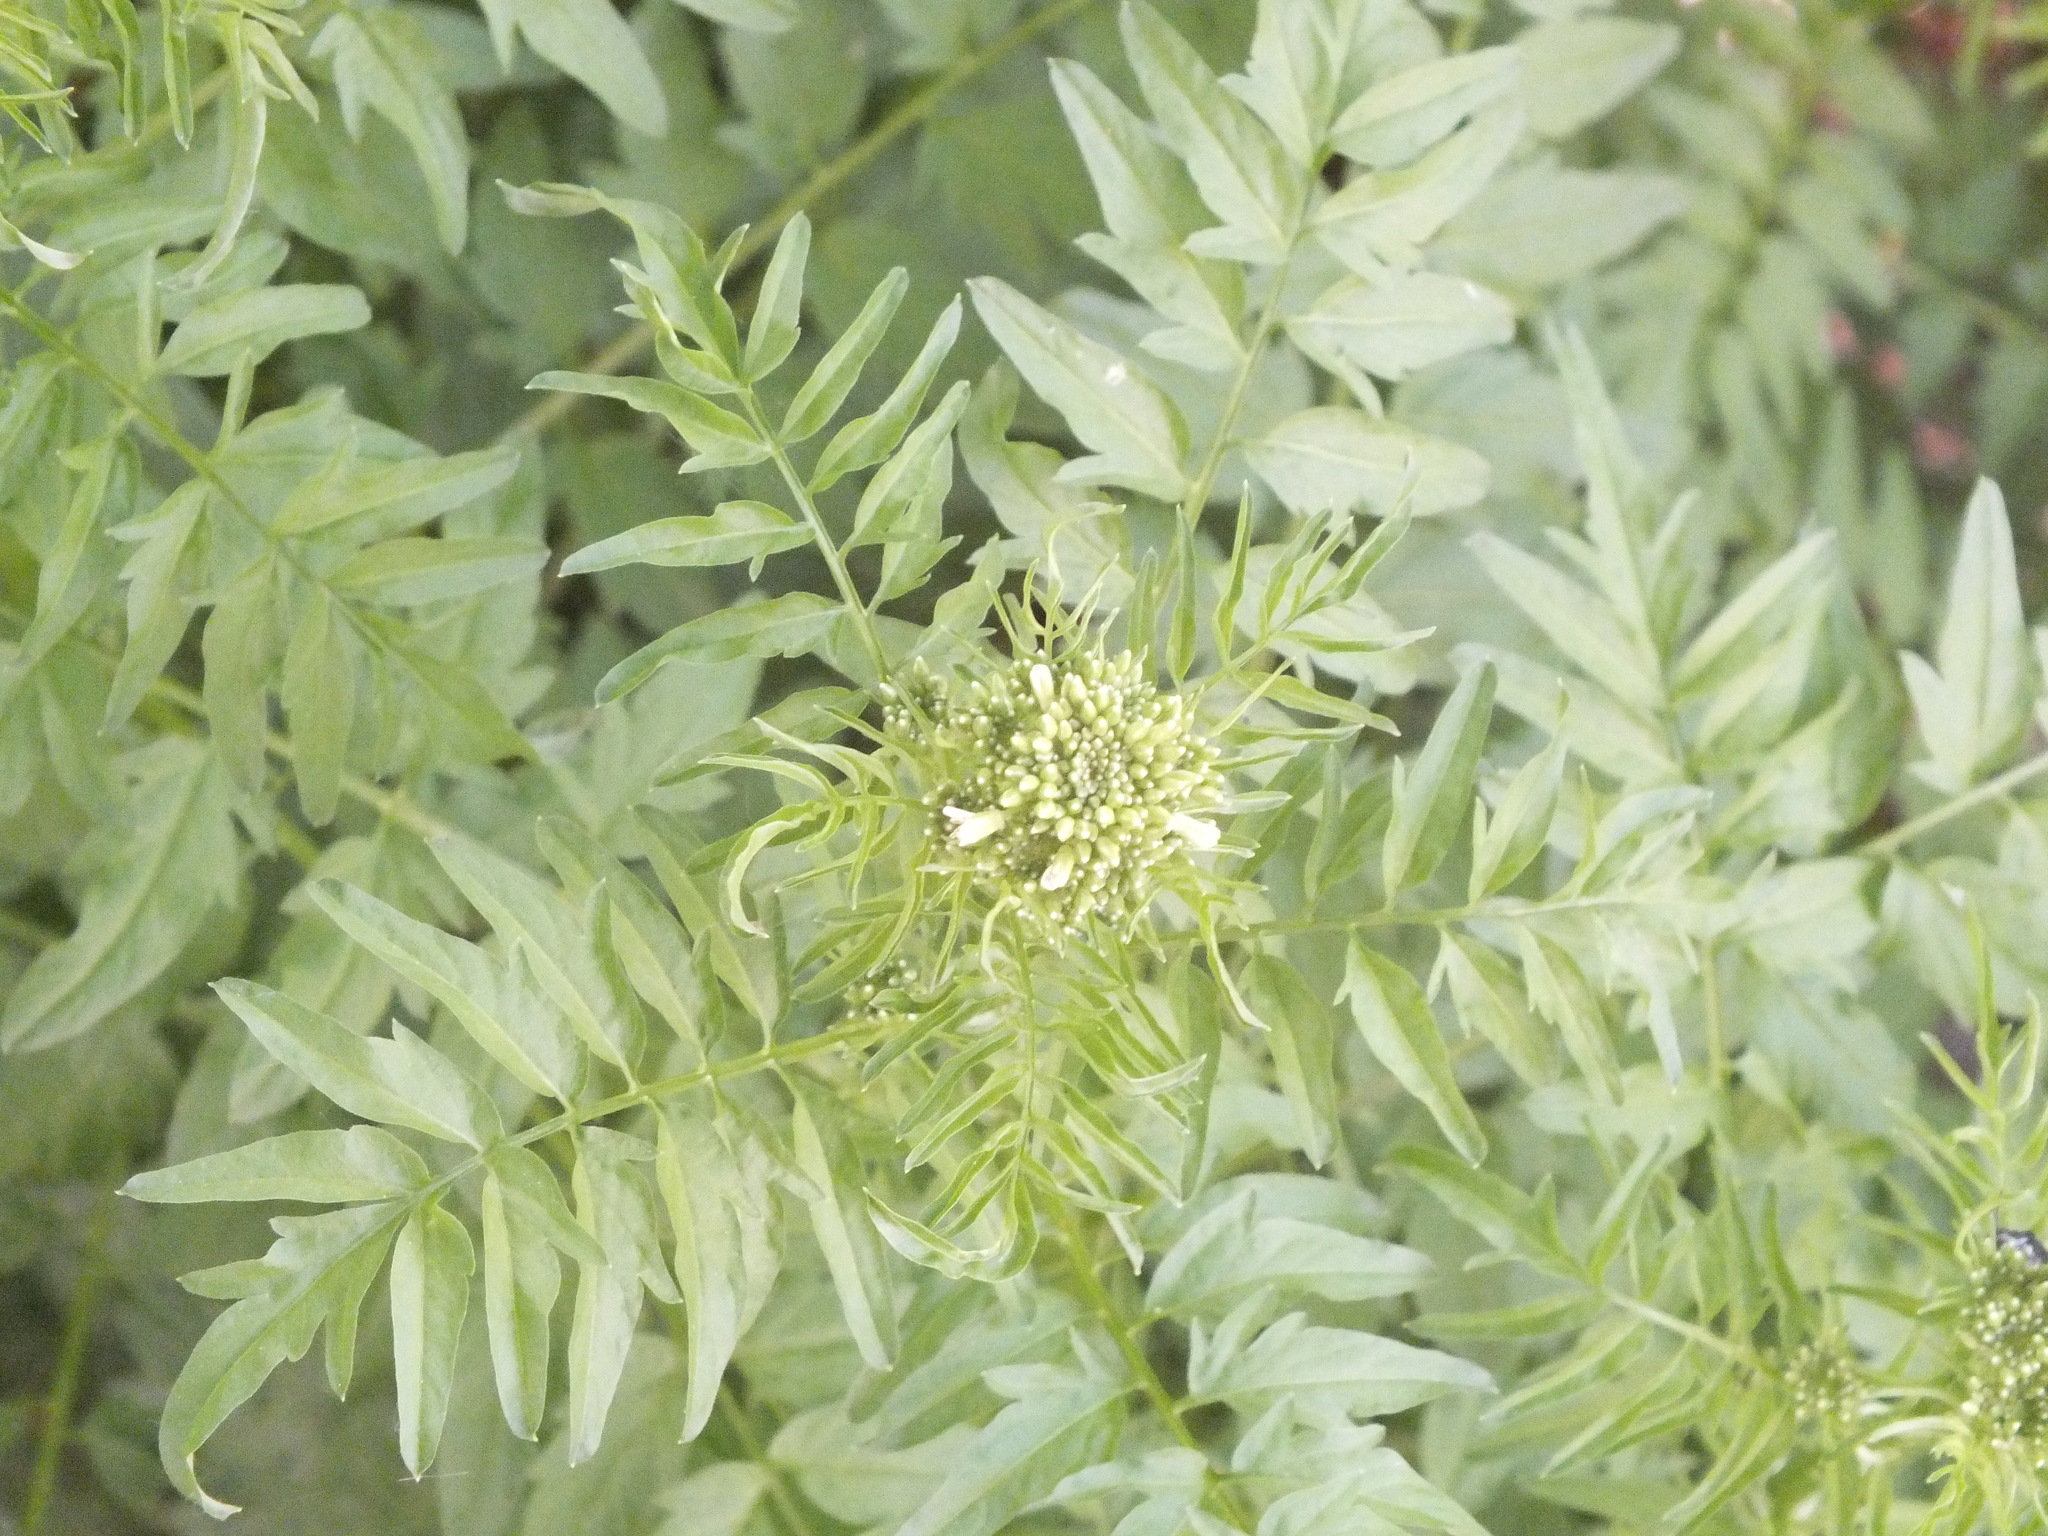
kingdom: Plantae
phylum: Tracheophyta
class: Magnoliopsida
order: Brassicales
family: Brassicaceae
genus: Cardamine
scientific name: Cardamine impatiens
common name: Narrow-leaved bitter-cress
